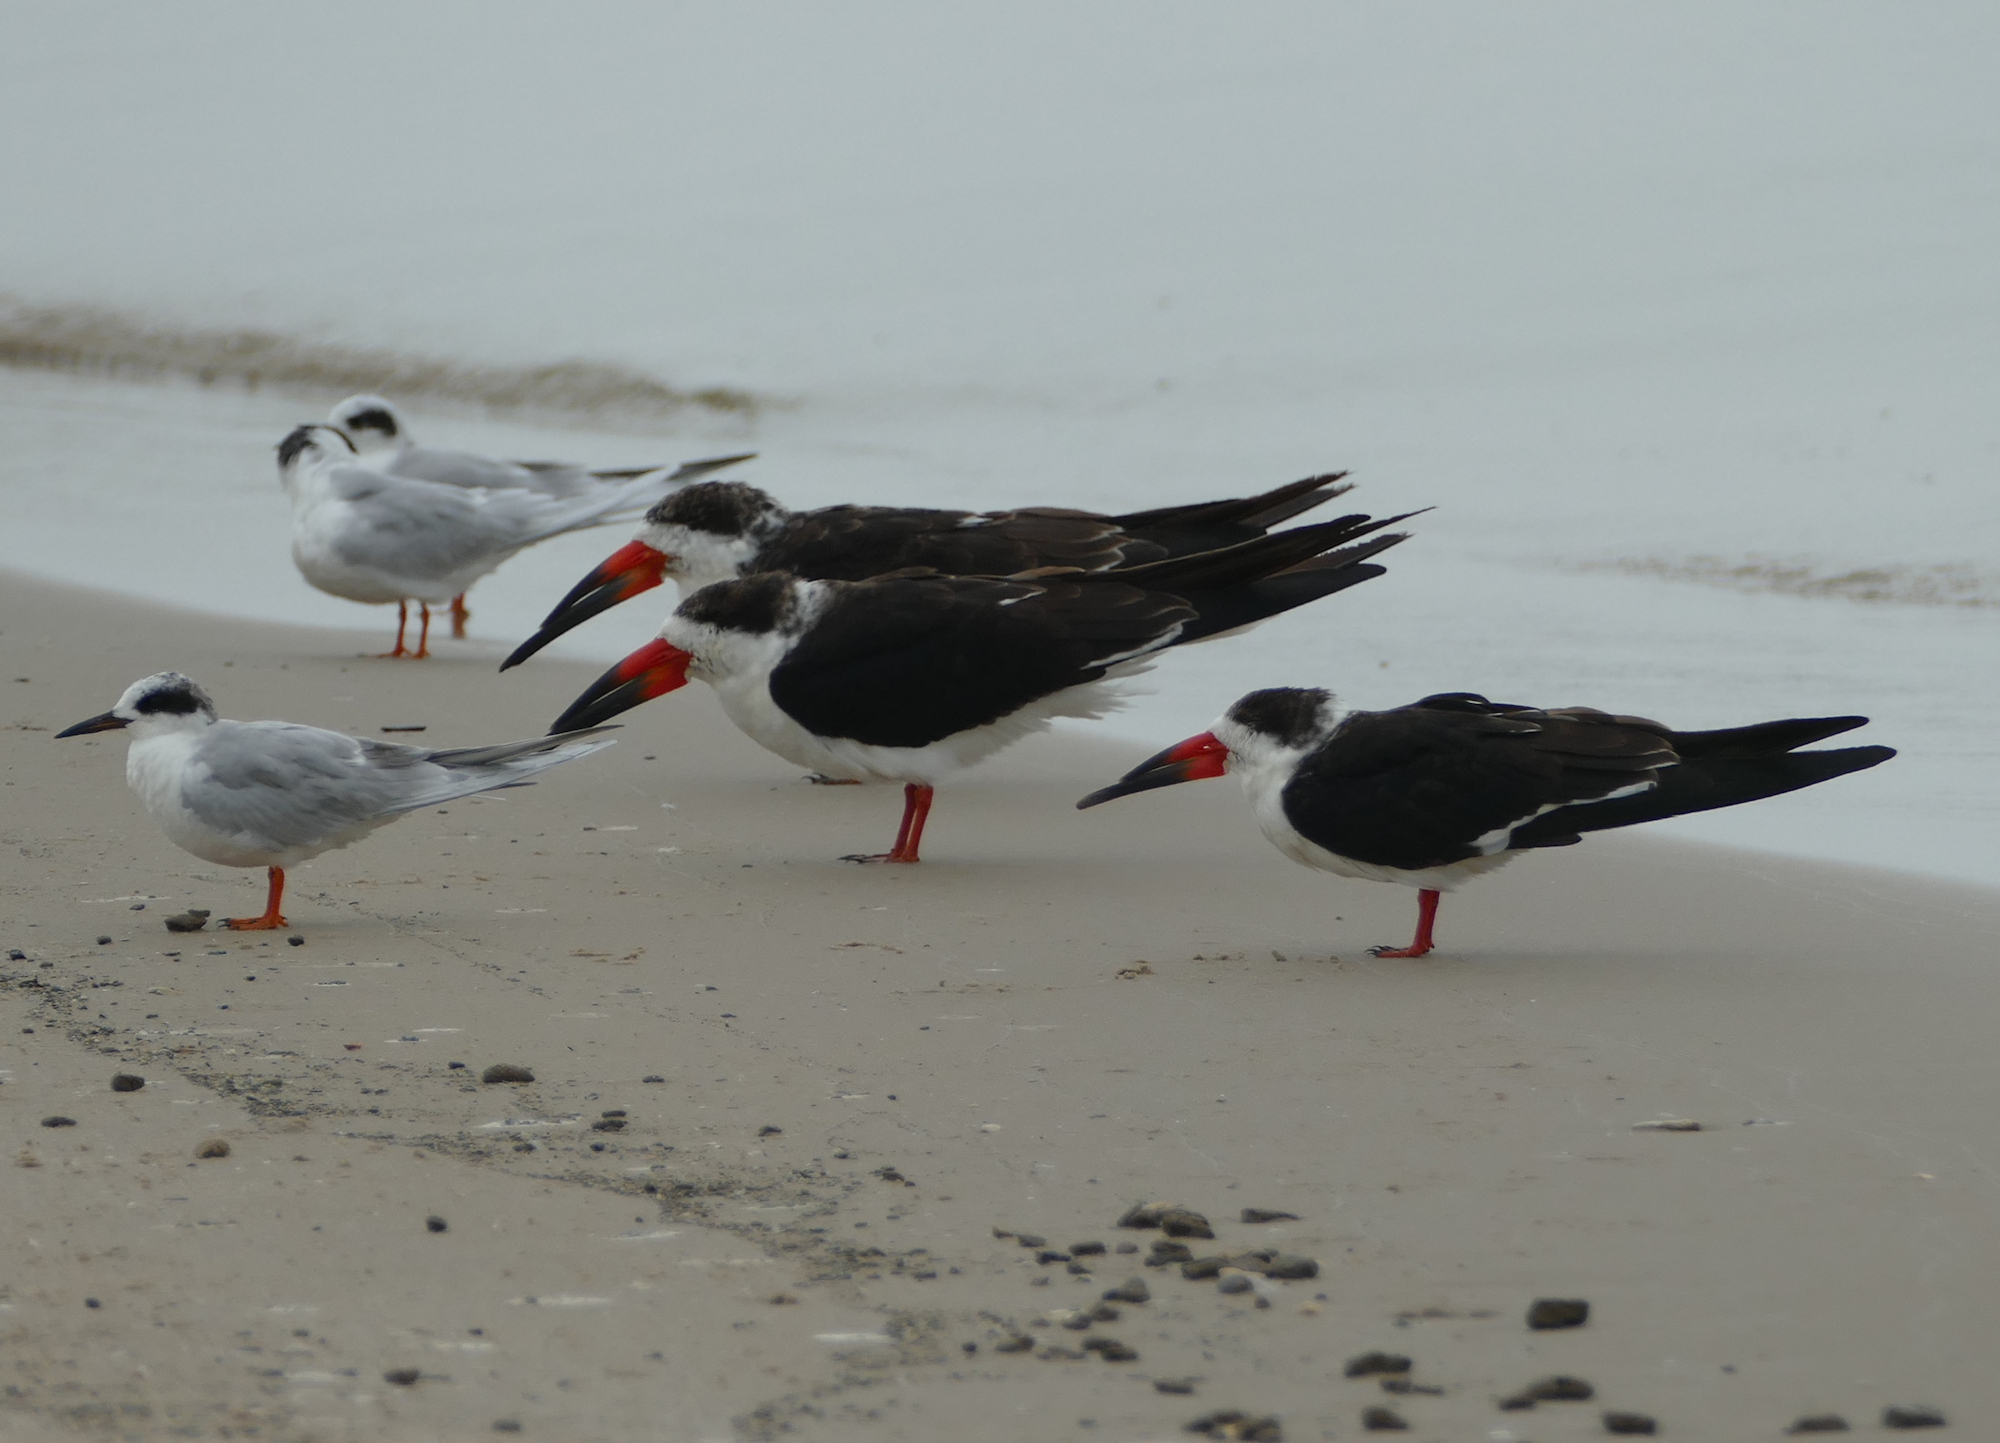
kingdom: Animalia
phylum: Chordata
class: Aves
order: Charadriiformes
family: Laridae
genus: Rynchops
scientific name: Rynchops niger
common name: Black skimmer
